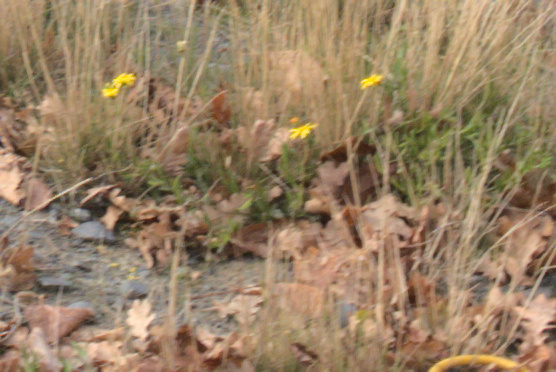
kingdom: Plantae
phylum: Tracheophyta
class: Magnoliopsida
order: Asterales
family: Asteraceae
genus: Senecio
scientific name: Senecio skirrhodon
